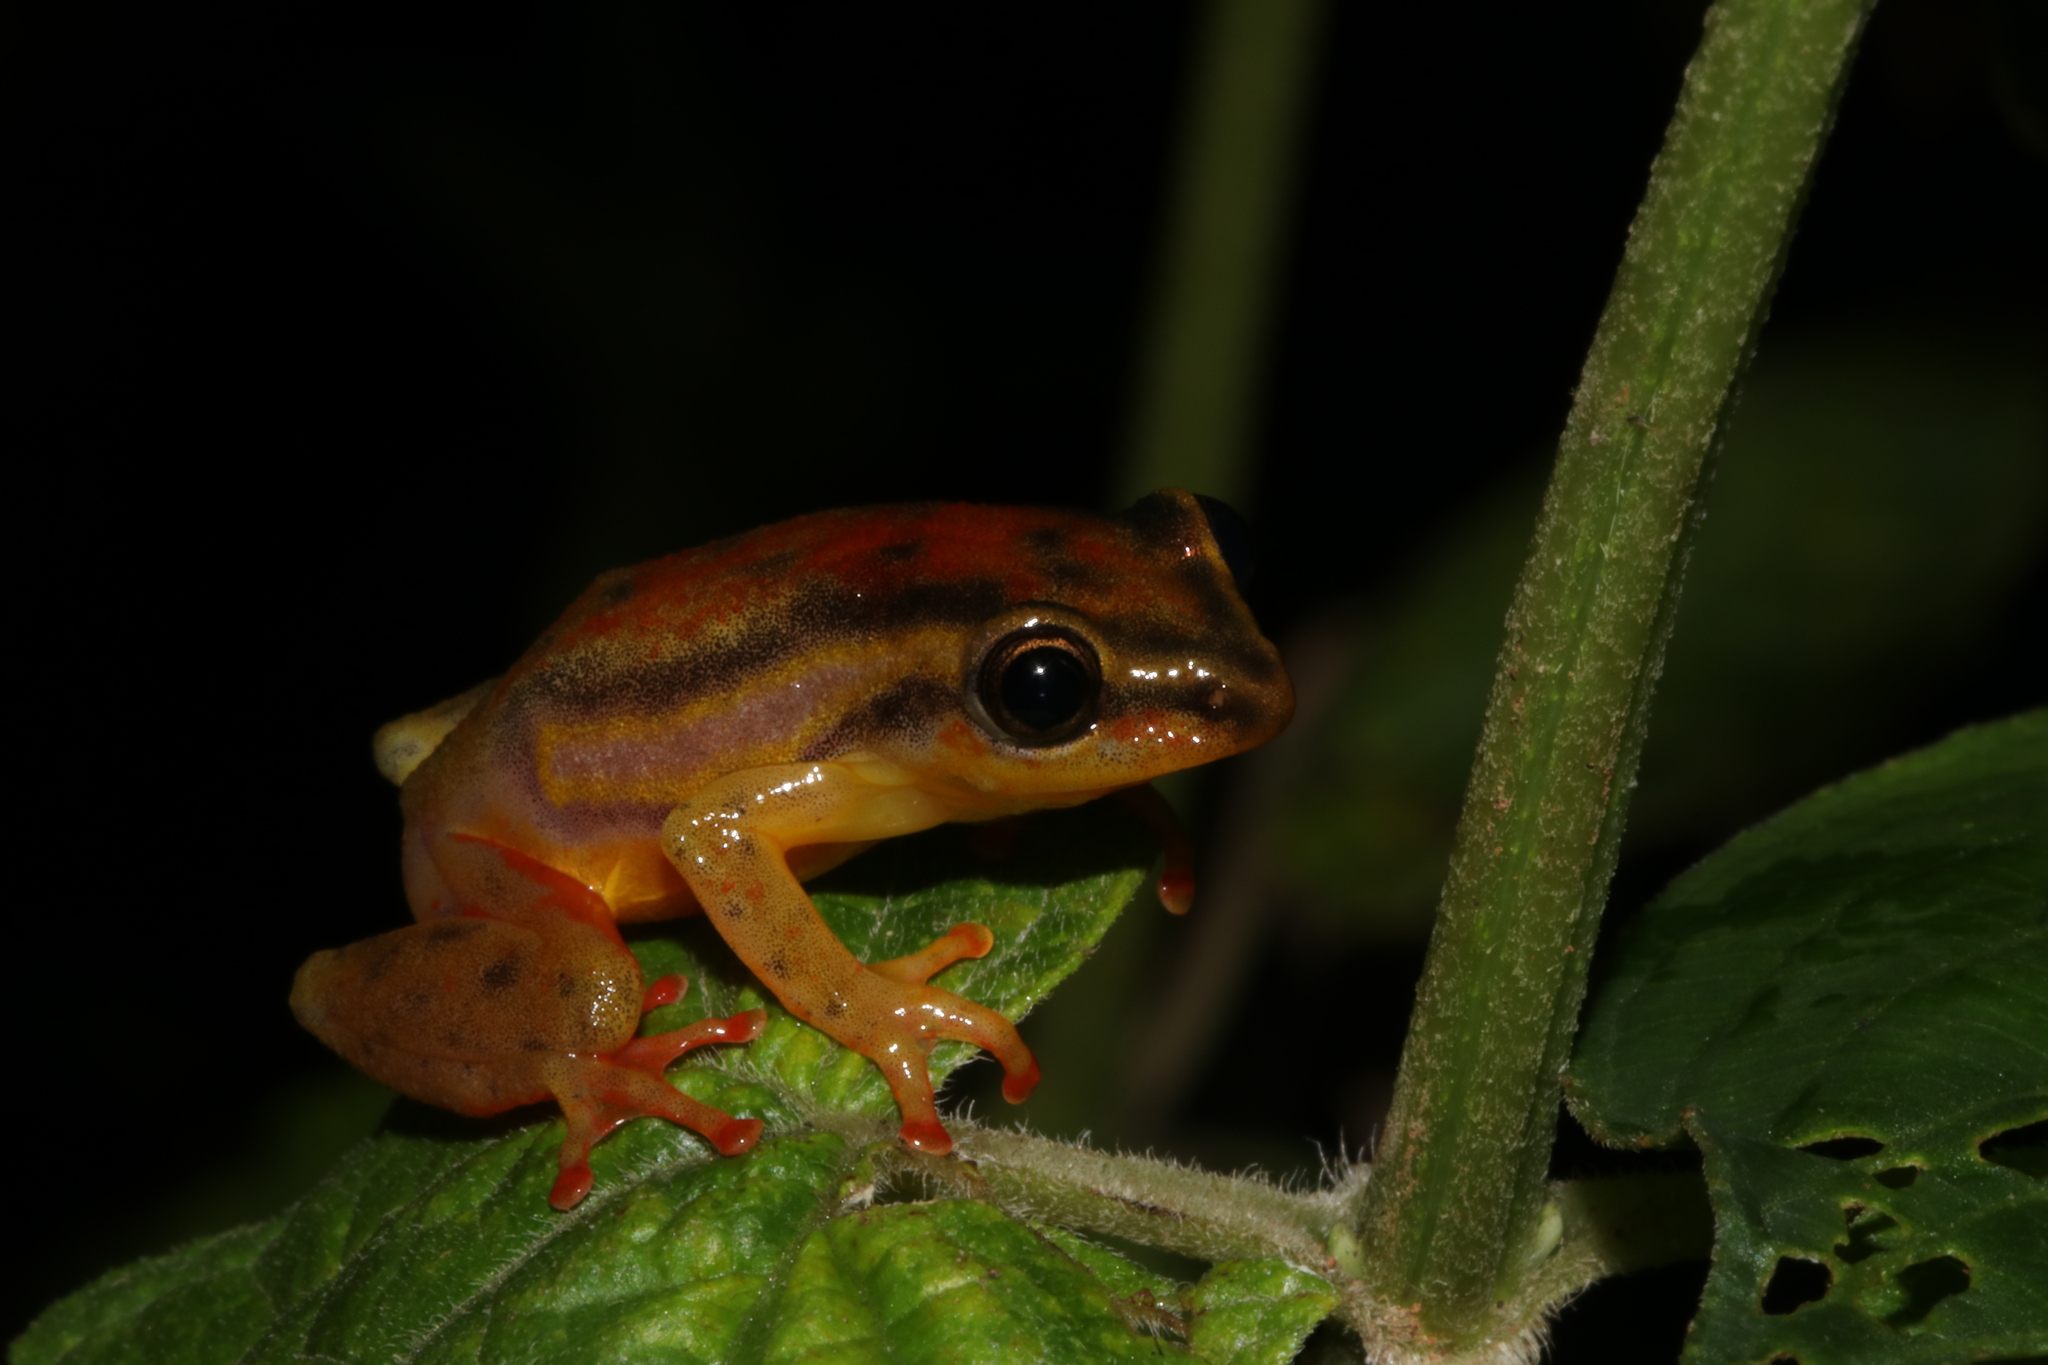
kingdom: Animalia
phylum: Chordata
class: Amphibia
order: Anura
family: Hyperoliidae
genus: Hyperolius
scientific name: Hyperolius mitchelli
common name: Mitchell's reed frog
